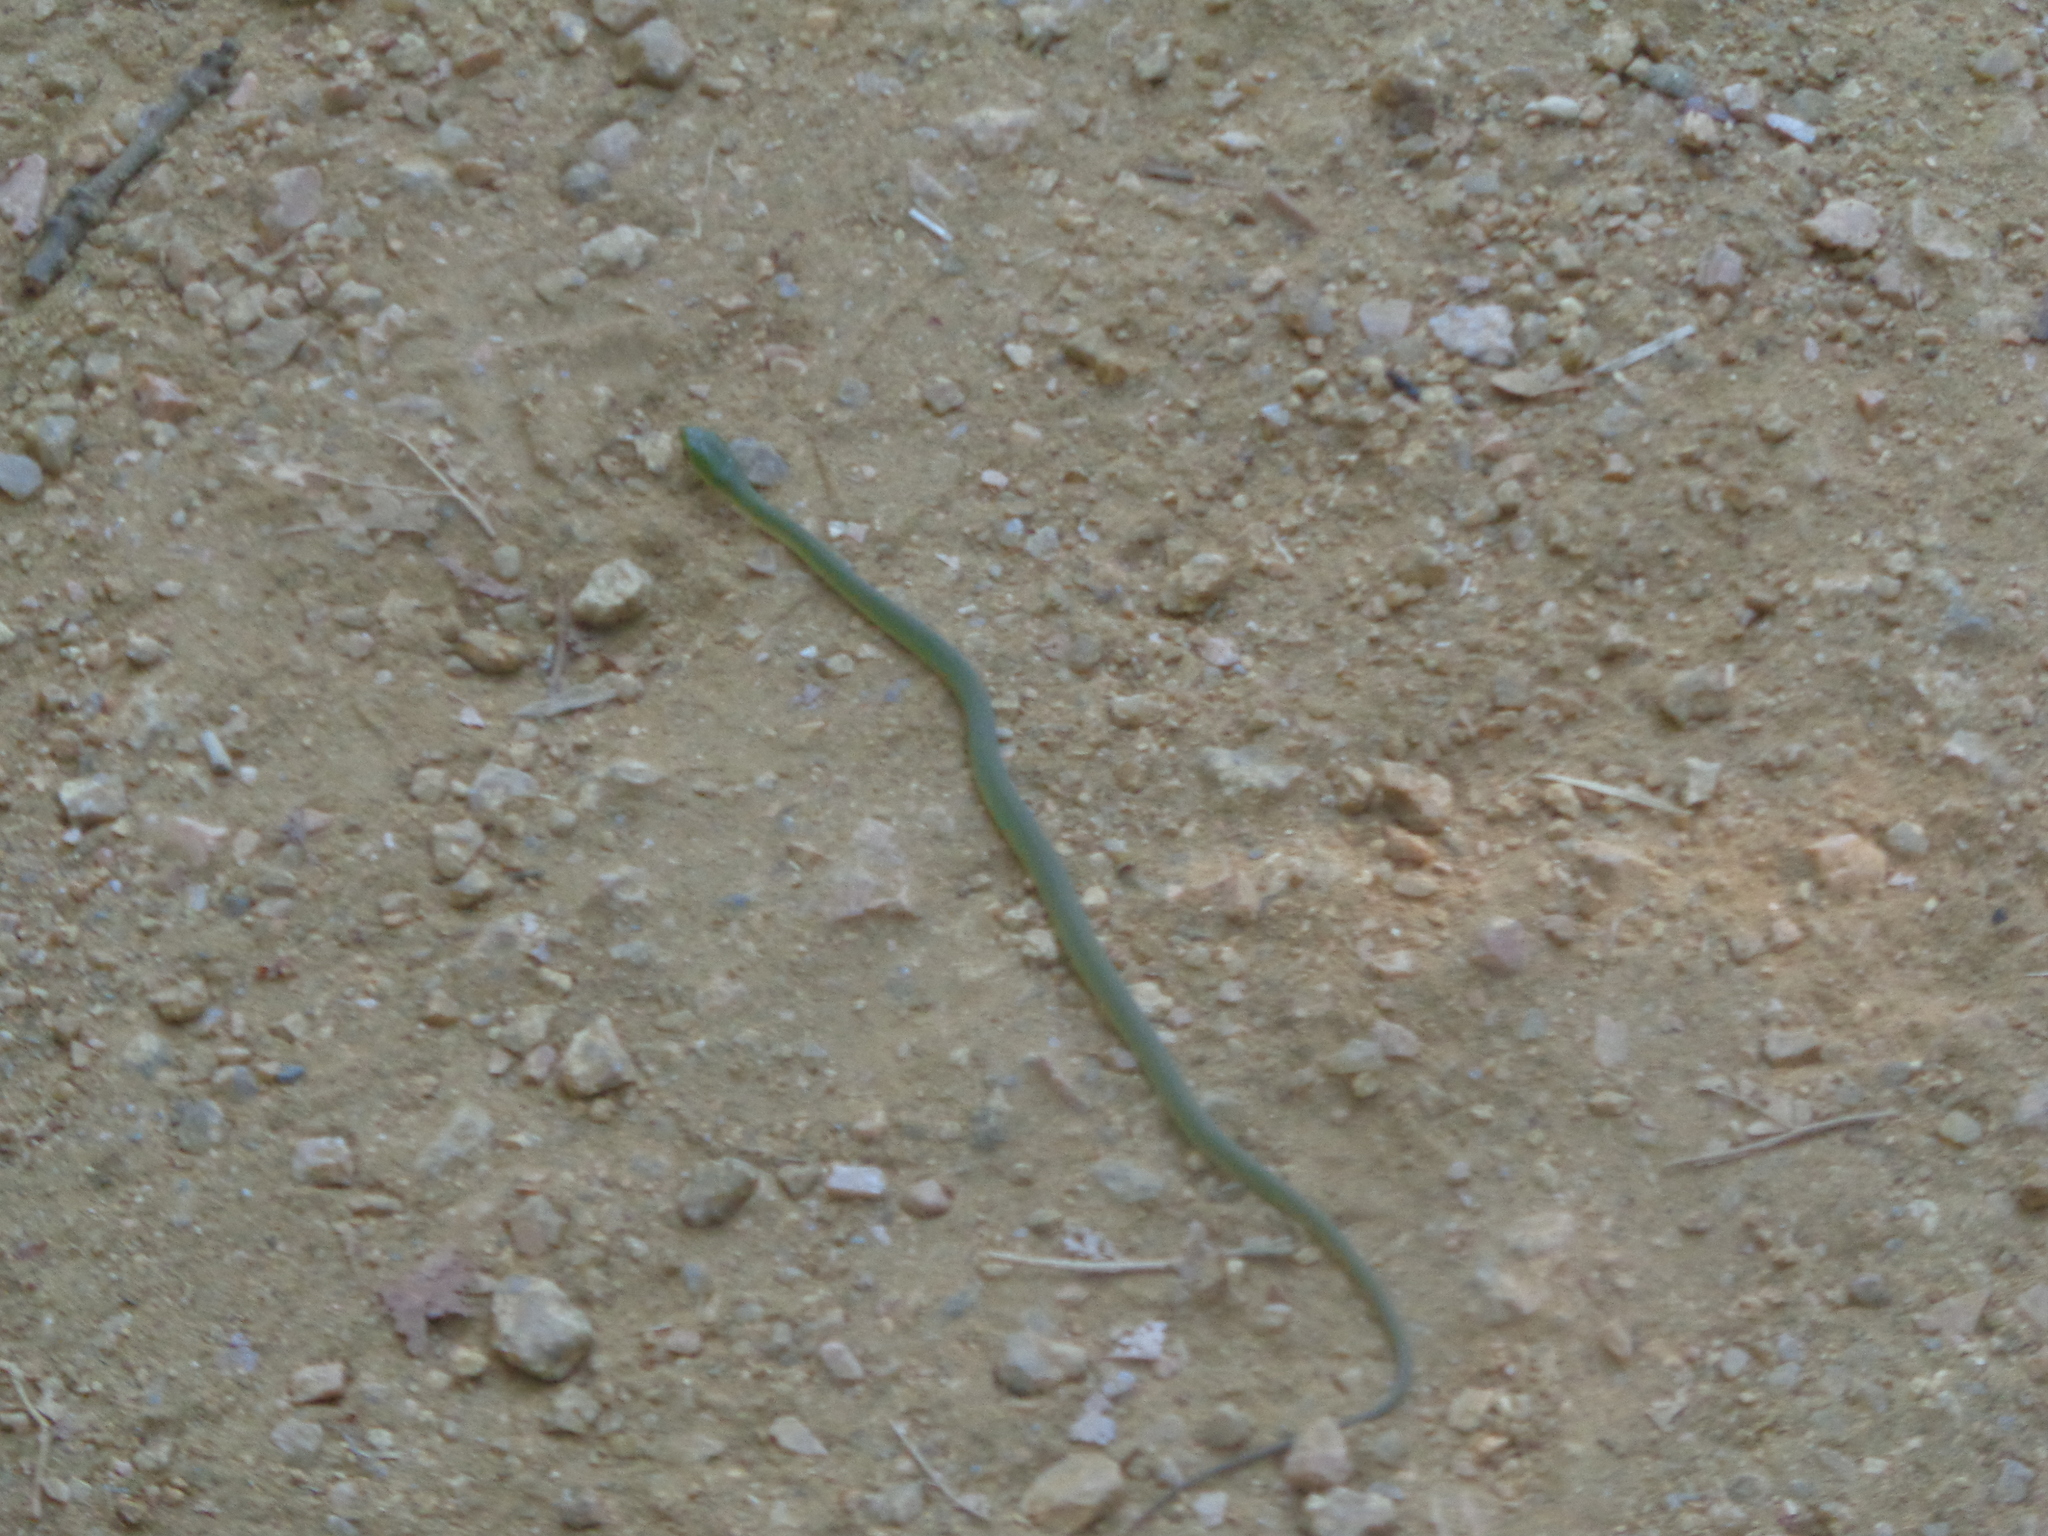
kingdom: Animalia
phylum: Chordata
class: Squamata
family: Colubridae
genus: Opheodrys
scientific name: Opheodrys aestivus
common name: Rough greensnake
